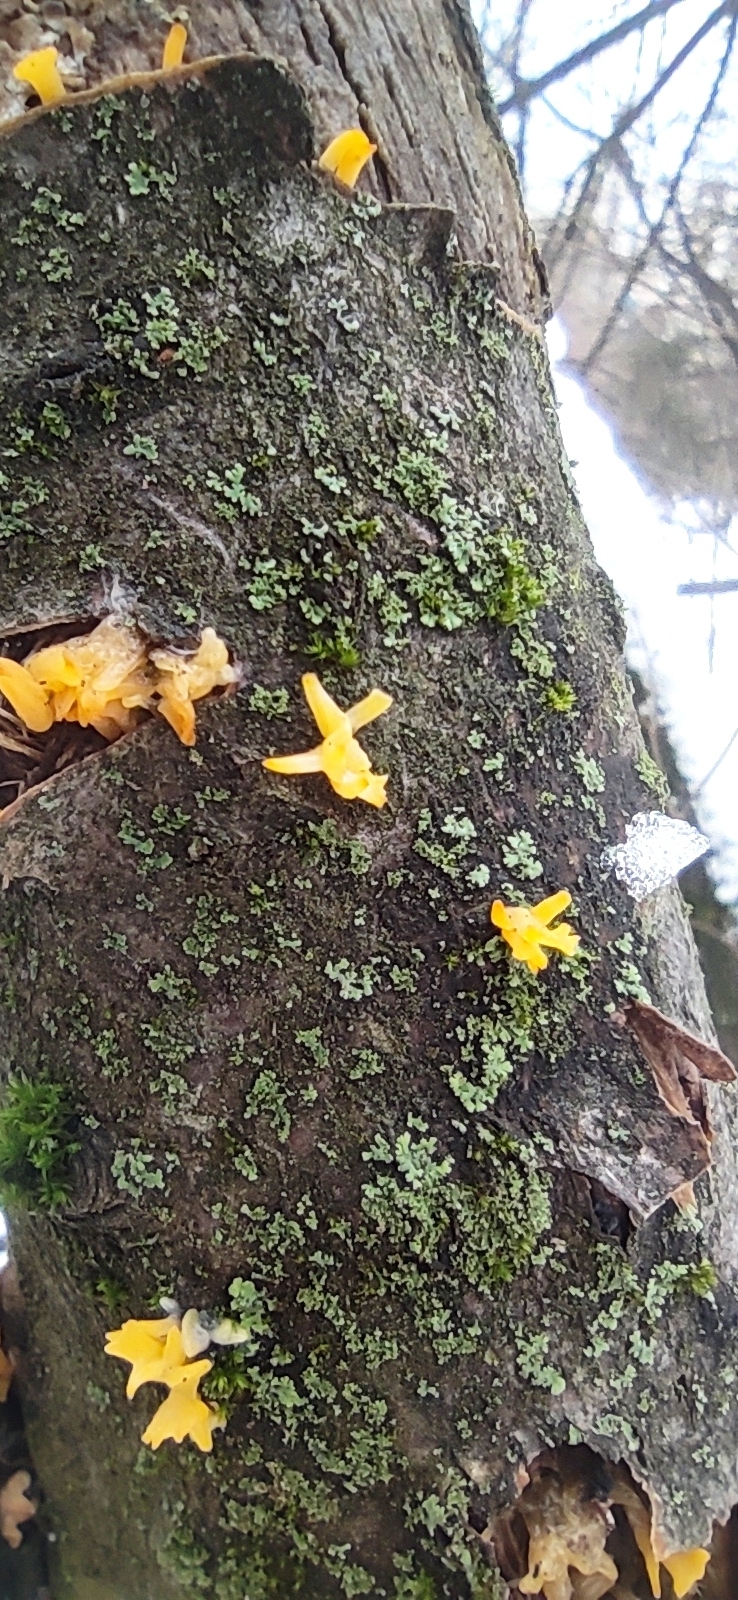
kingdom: Fungi
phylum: Basidiomycota
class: Dacrymycetes
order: Dacrymycetales
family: Dacrymycetaceae
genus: Calocera
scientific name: Calocera cornea
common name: Small stagshorn
